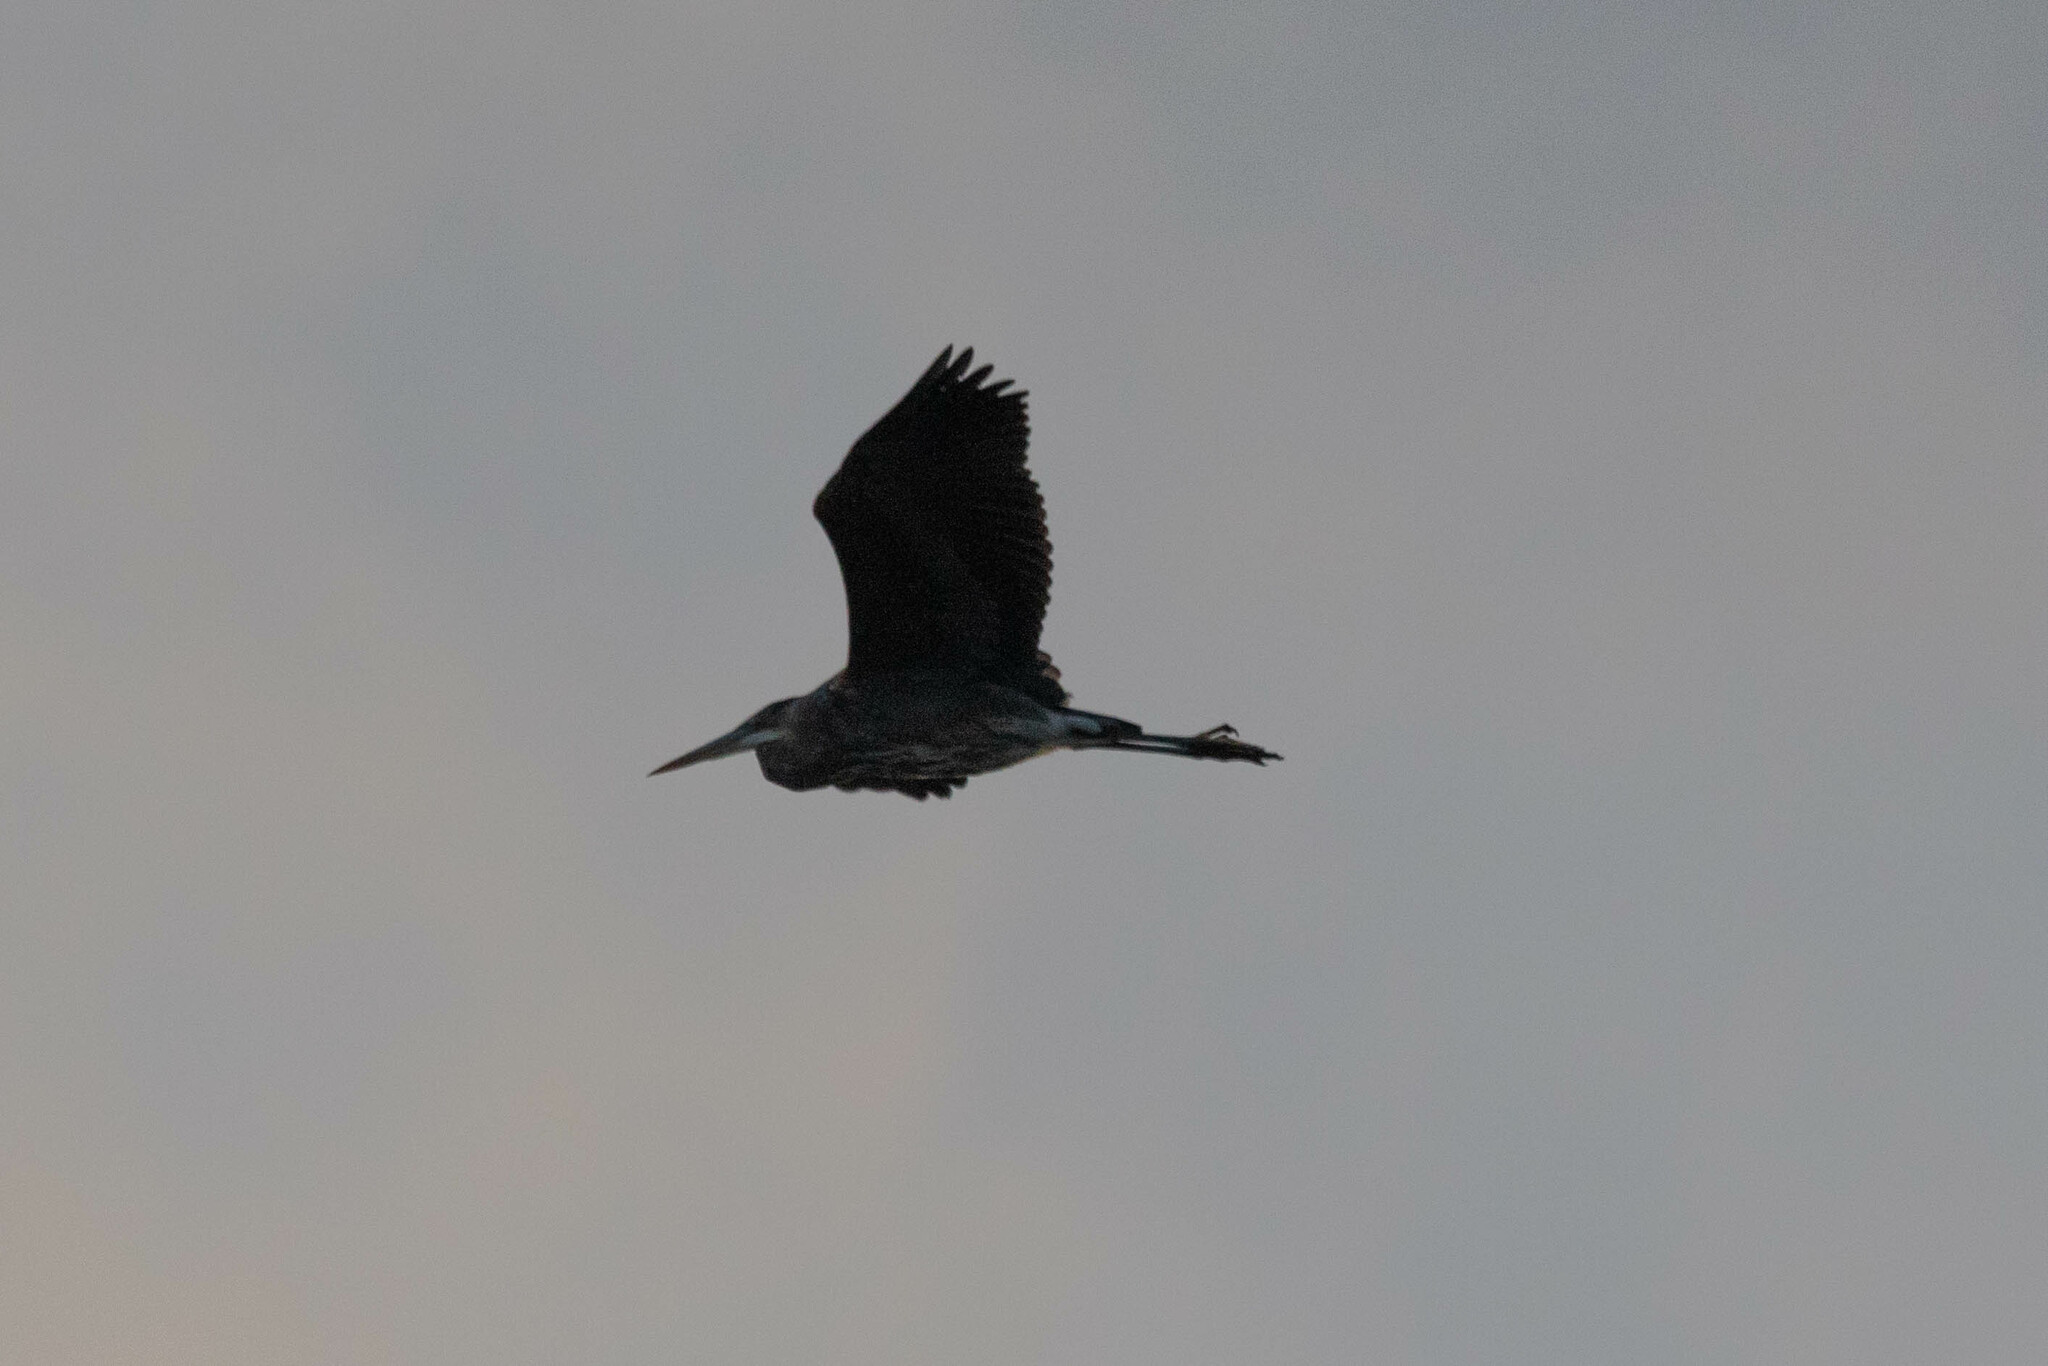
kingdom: Animalia
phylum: Chordata
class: Aves
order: Pelecaniformes
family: Ardeidae
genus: Ardea
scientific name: Ardea herodias
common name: Great blue heron
